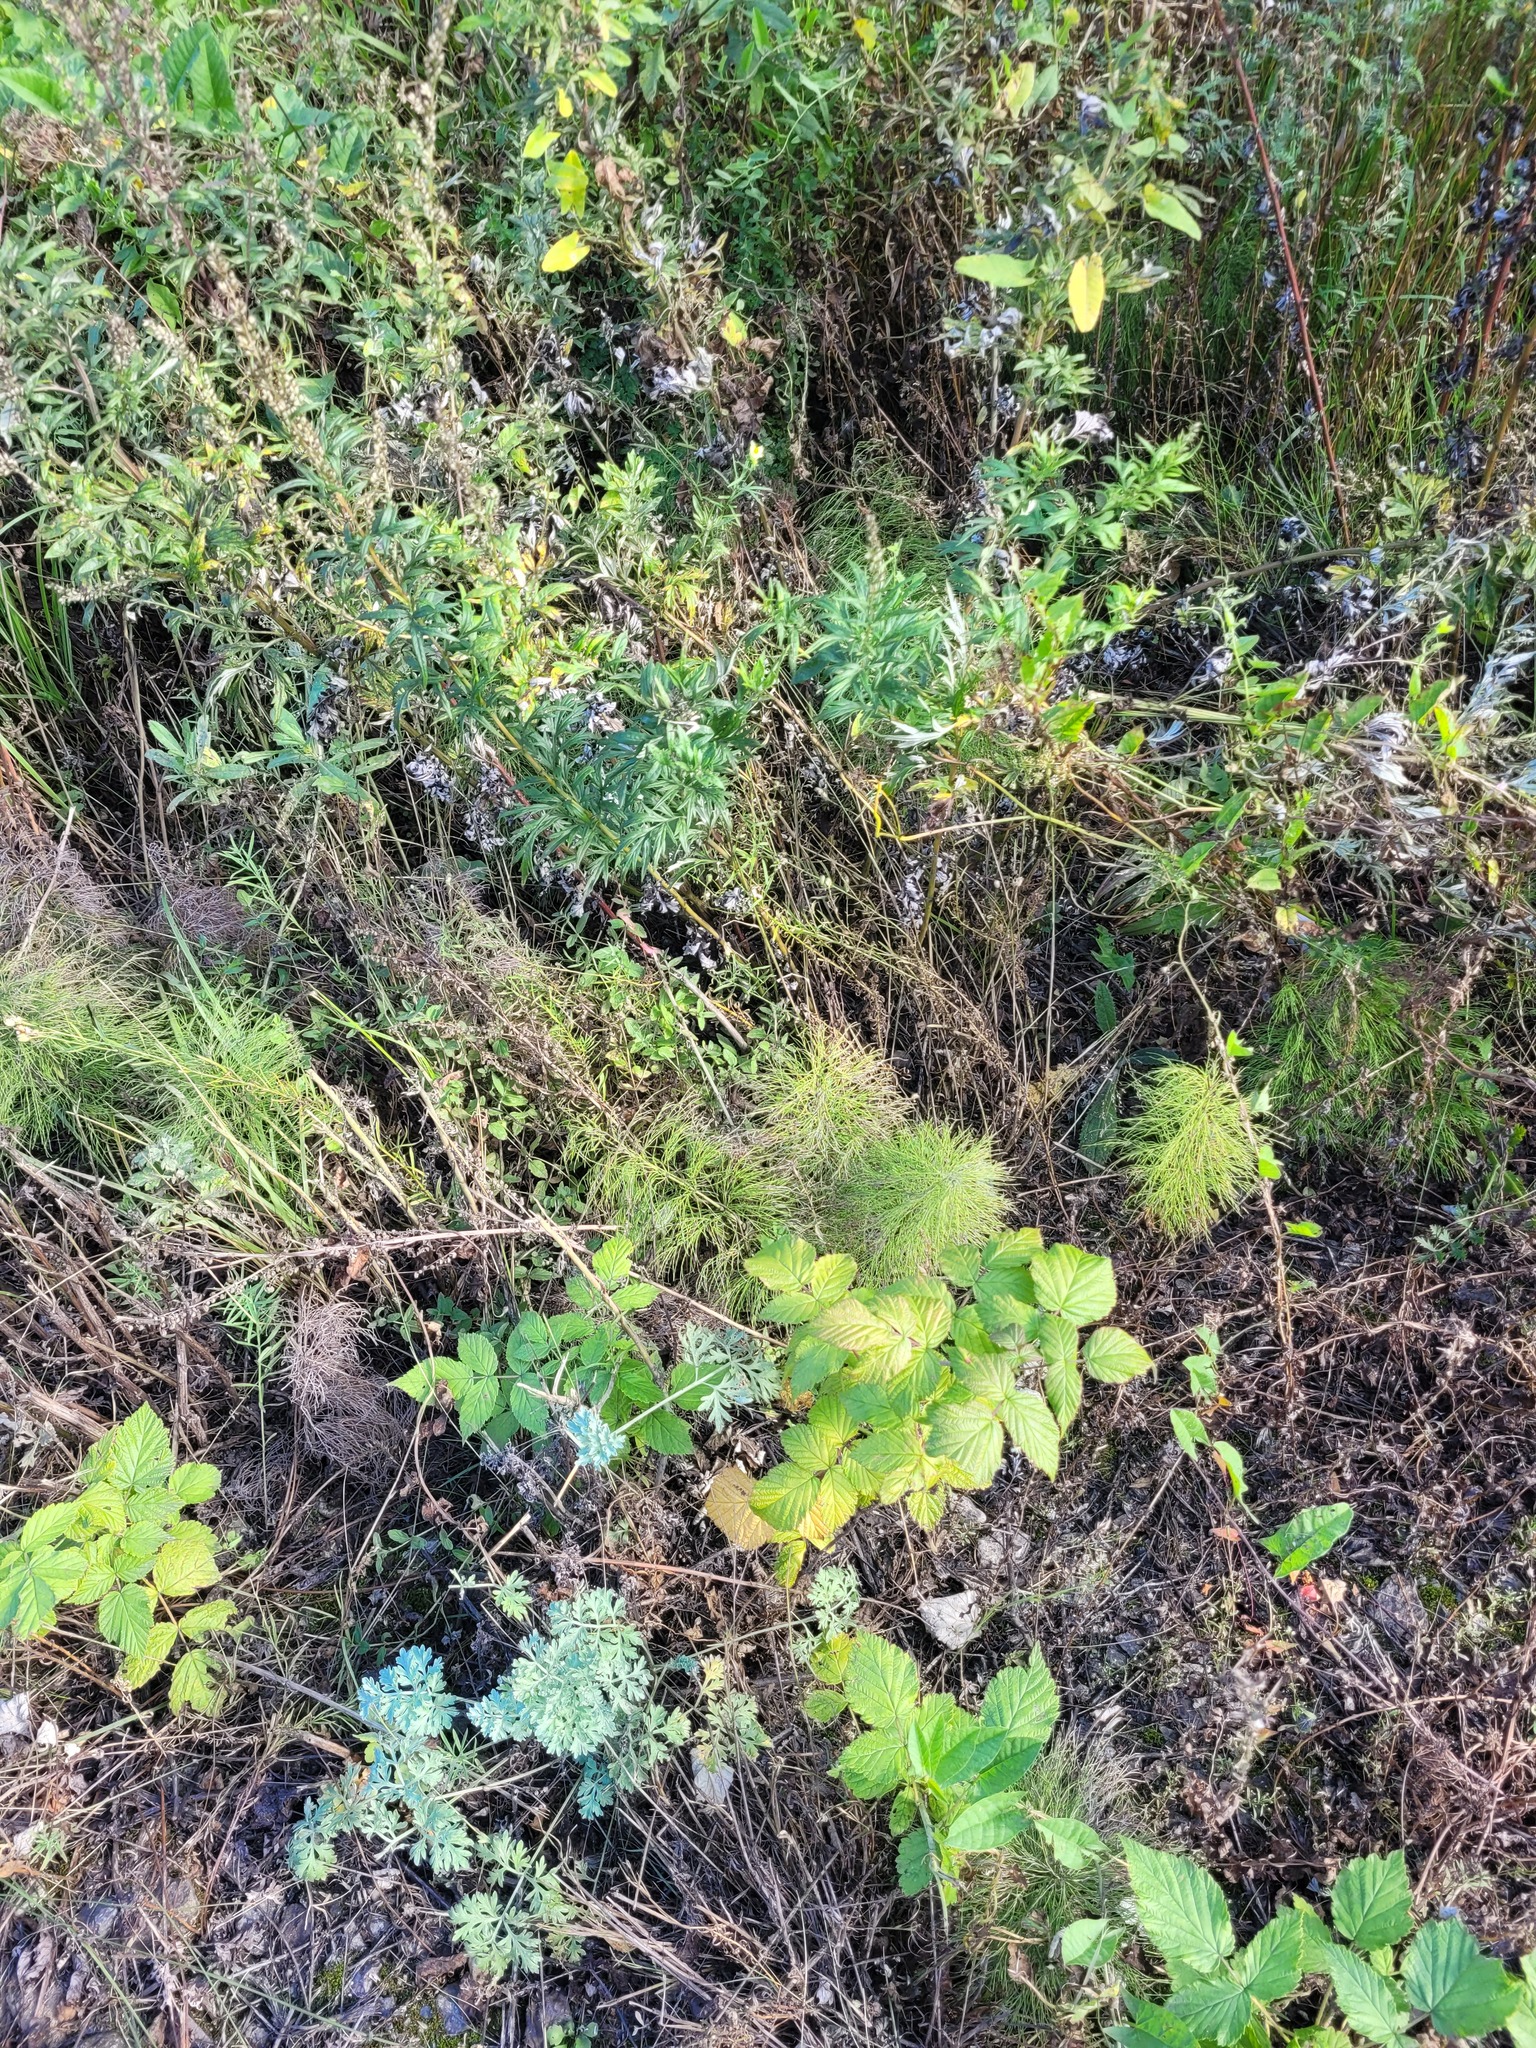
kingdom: Plantae
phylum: Tracheophyta
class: Polypodiopsida
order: Equisetales
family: Equisetaceae
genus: Equisetum
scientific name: Equisetum sylvaticum
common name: Wood horsetail
